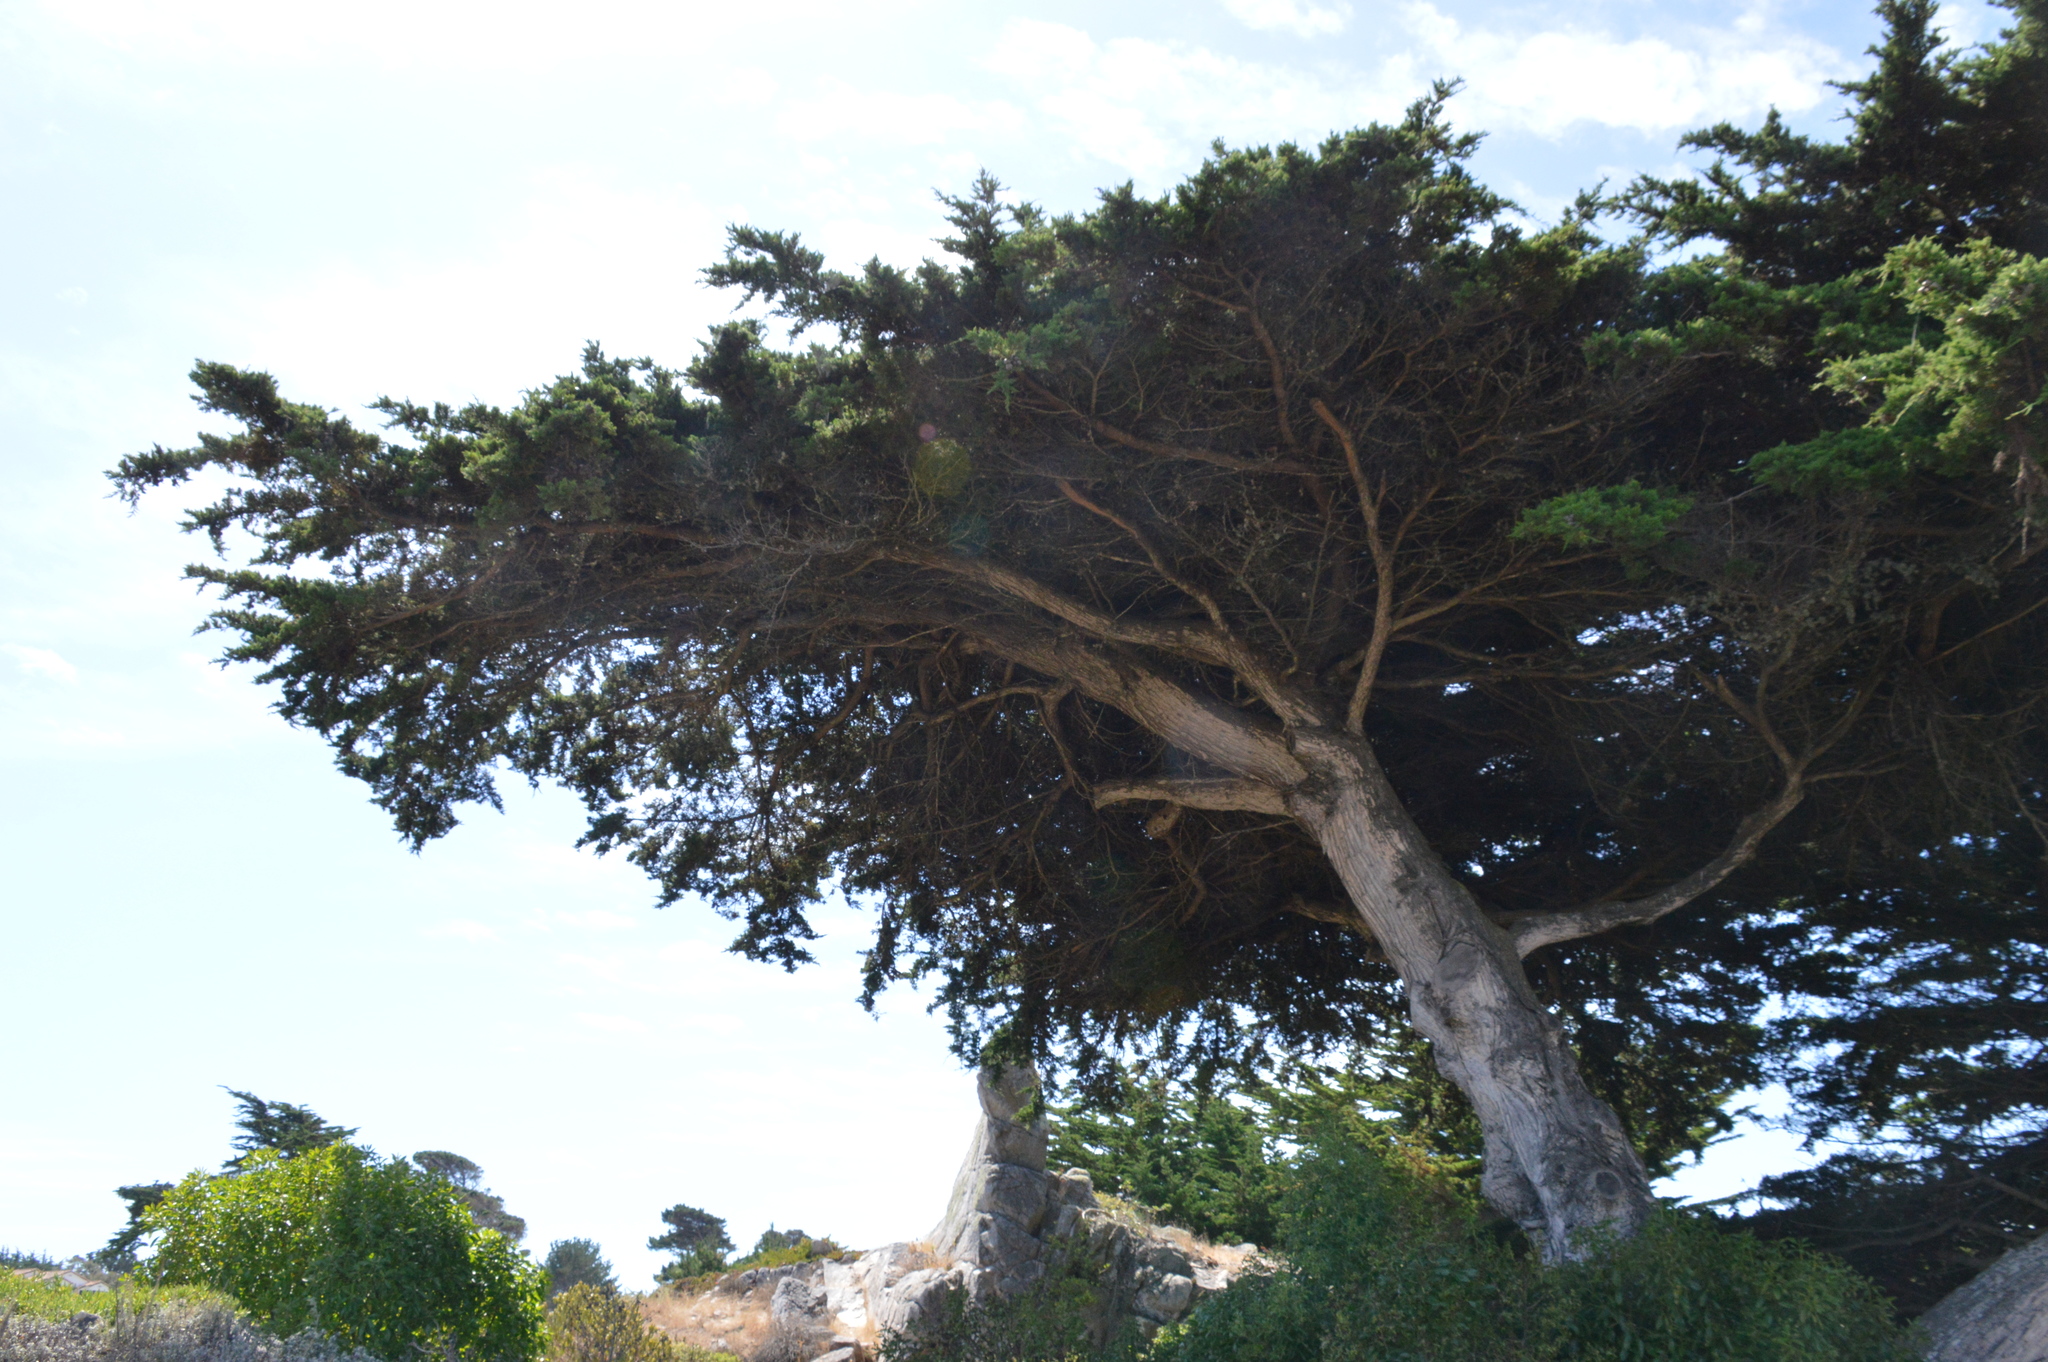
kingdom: Plantae
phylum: Tracheophyta
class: Pinopsida
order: Pinales
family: Cupressaceae
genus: Cupressus
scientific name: Cupressus macrocarpa
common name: Monterey cypress
